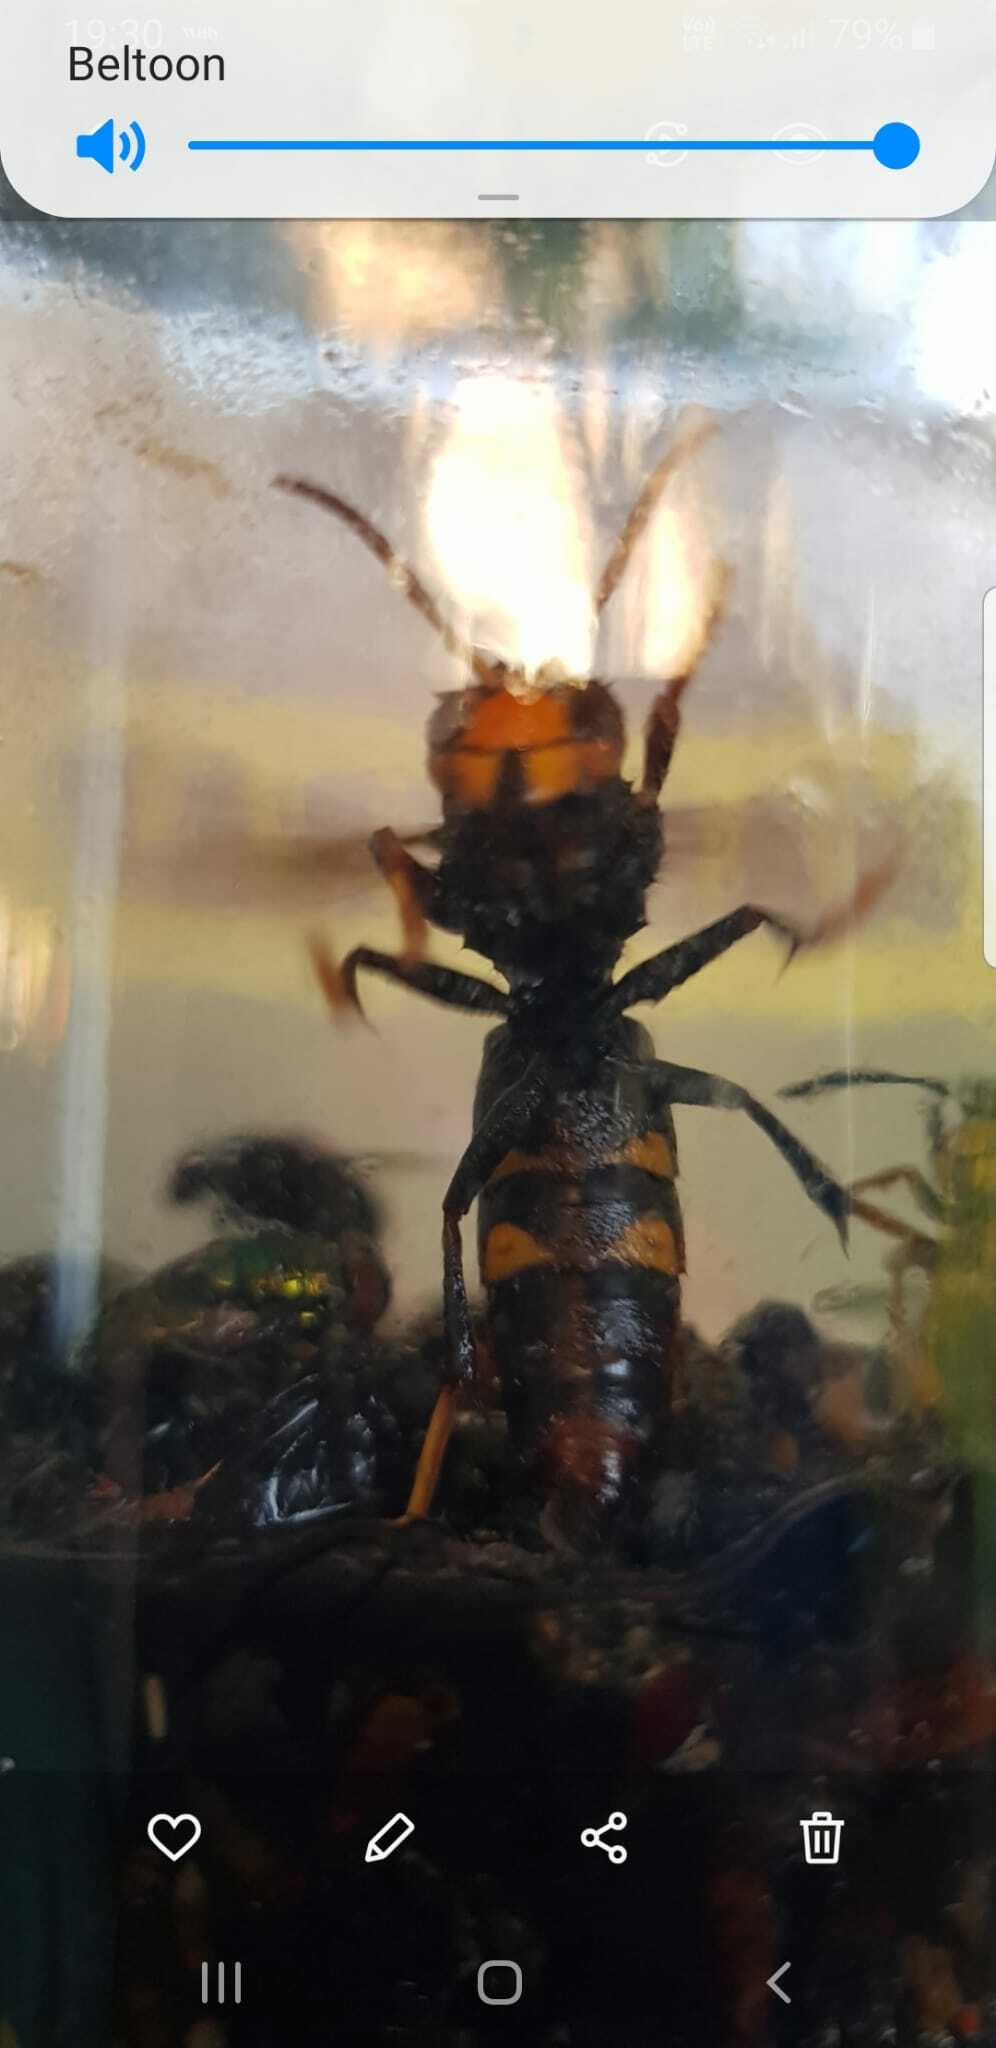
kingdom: Animalia
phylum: Arthropoda
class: Insecta
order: Hymenoptera
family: Vespidae
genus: Vespa
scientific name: Vespa velutina
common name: Asian hornet
